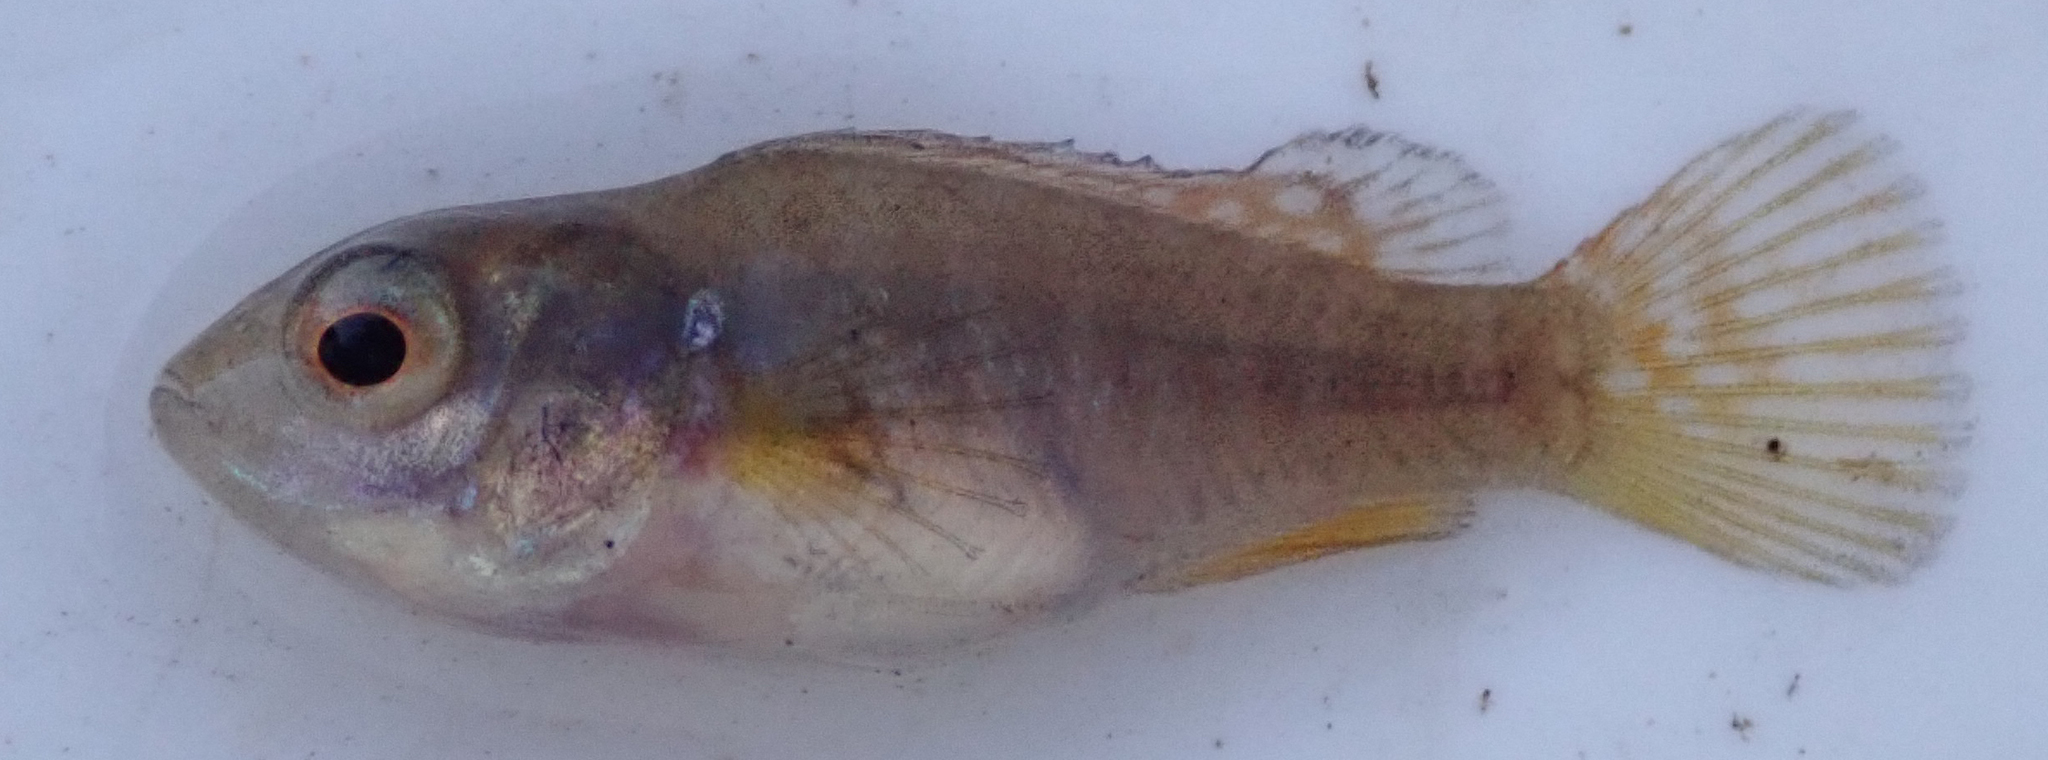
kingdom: Animalia
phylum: Chordata
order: Perciformes
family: Cichlidae
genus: Pseudocrenilabrus
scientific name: Pseudocrenilabrus philander
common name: Southern mouthbrooder
